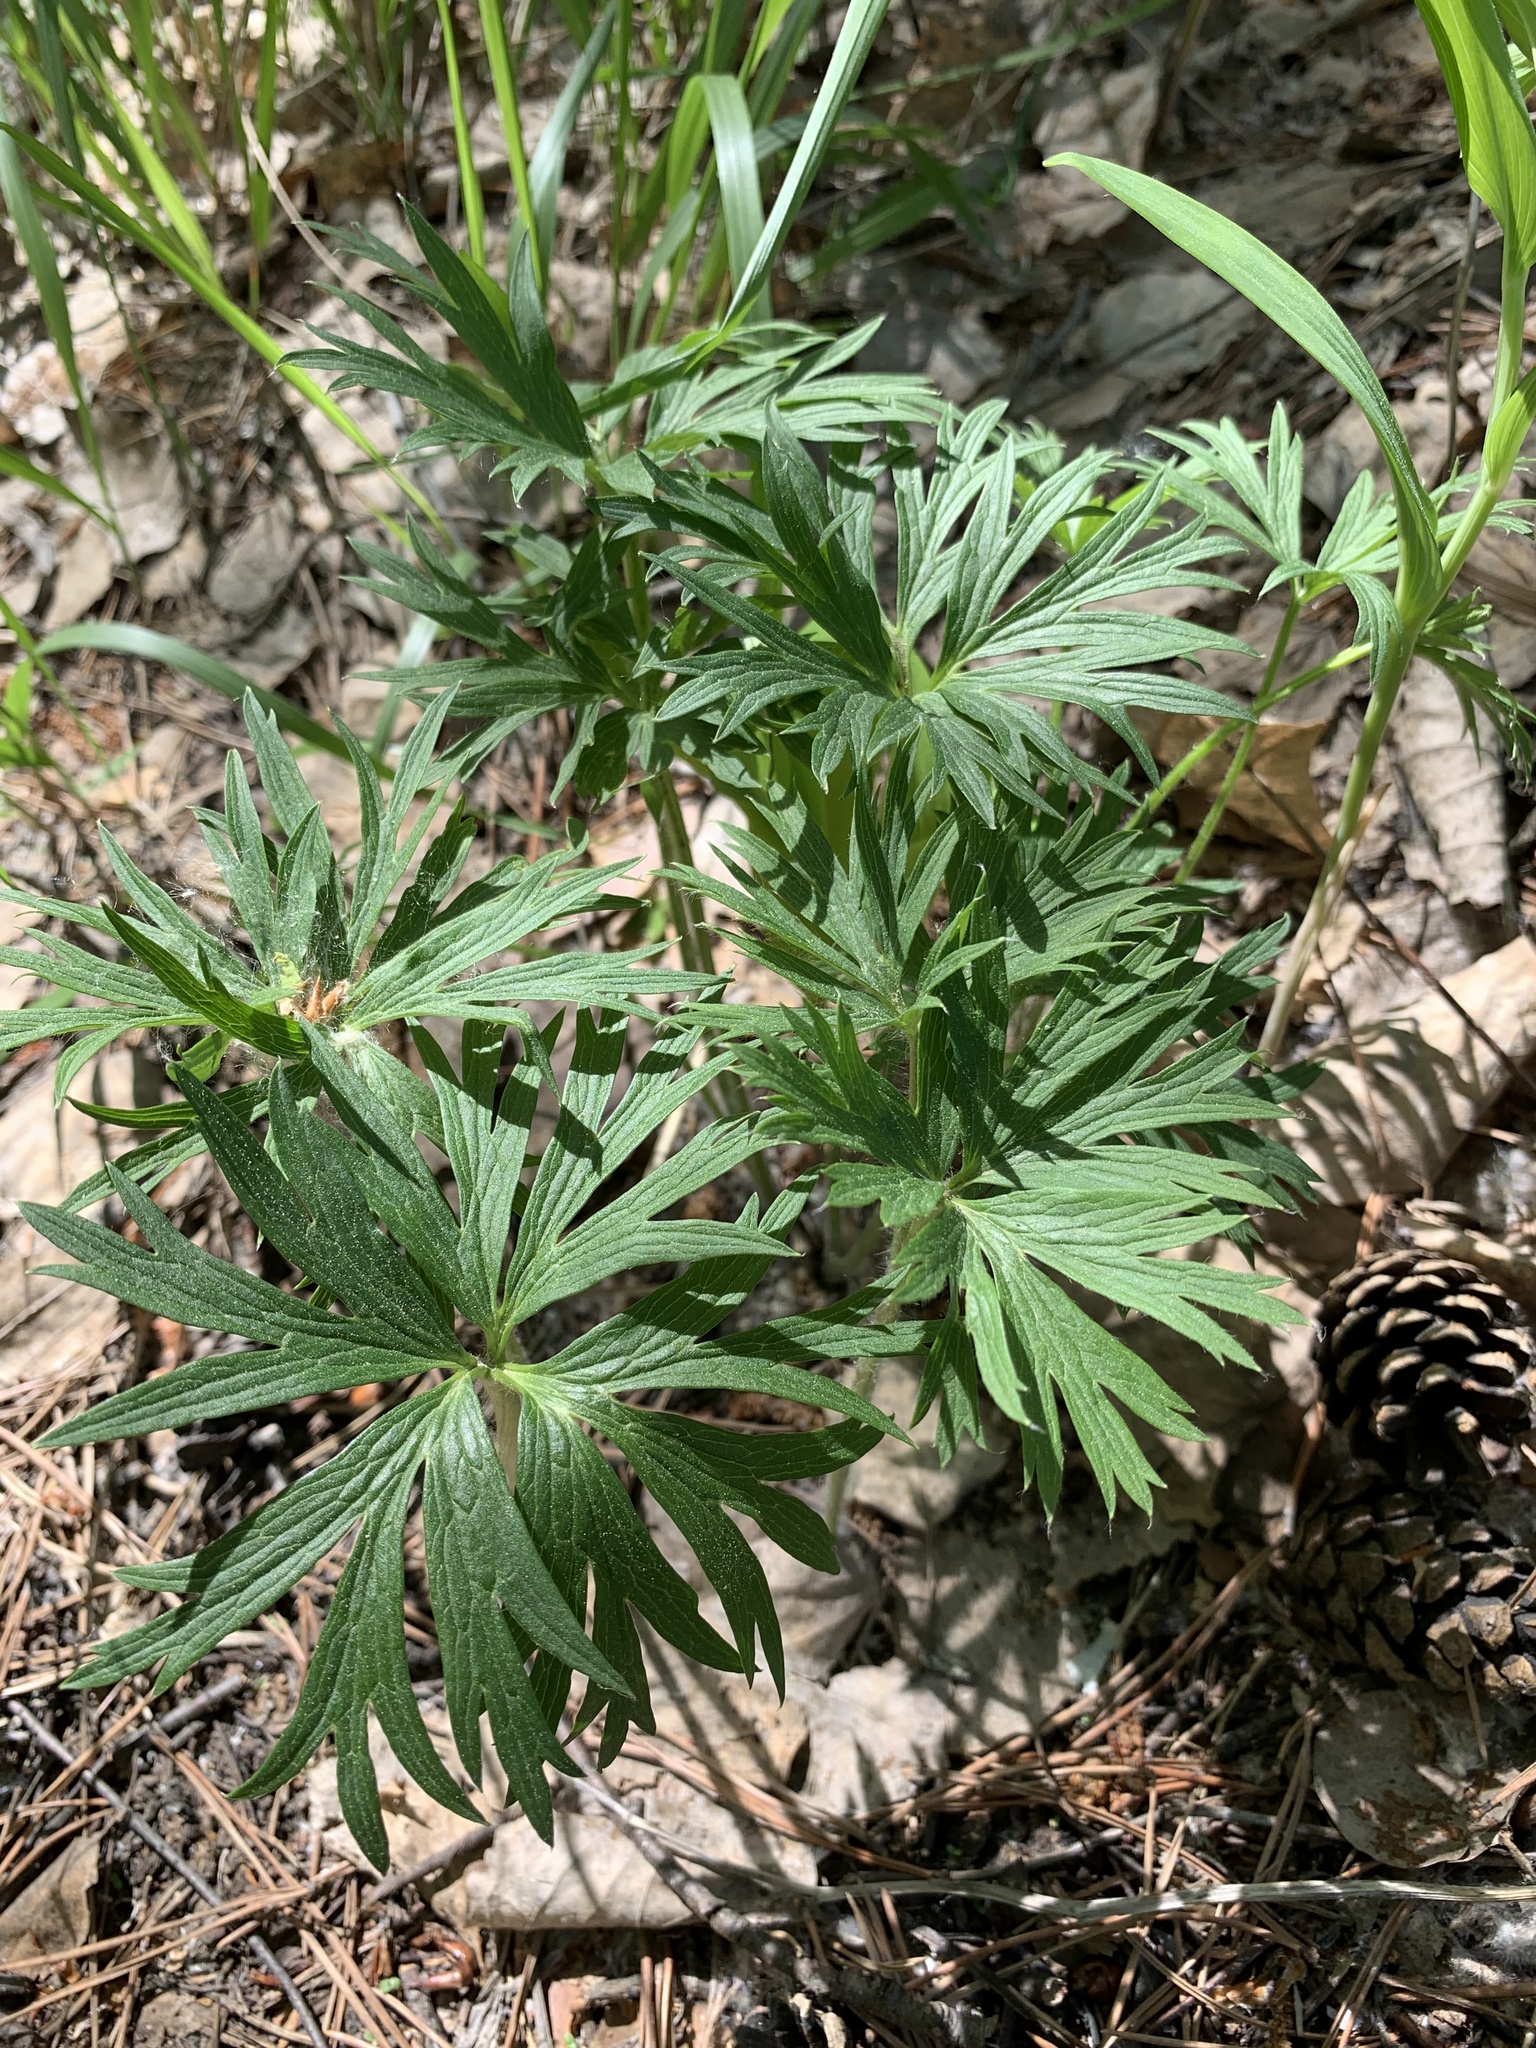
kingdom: Plantae
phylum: Tracheophyta
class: Magnoliopsida
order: Ranunculales
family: Ranunculaceae
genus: Pulsatilla
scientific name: Pulsatilla patens
